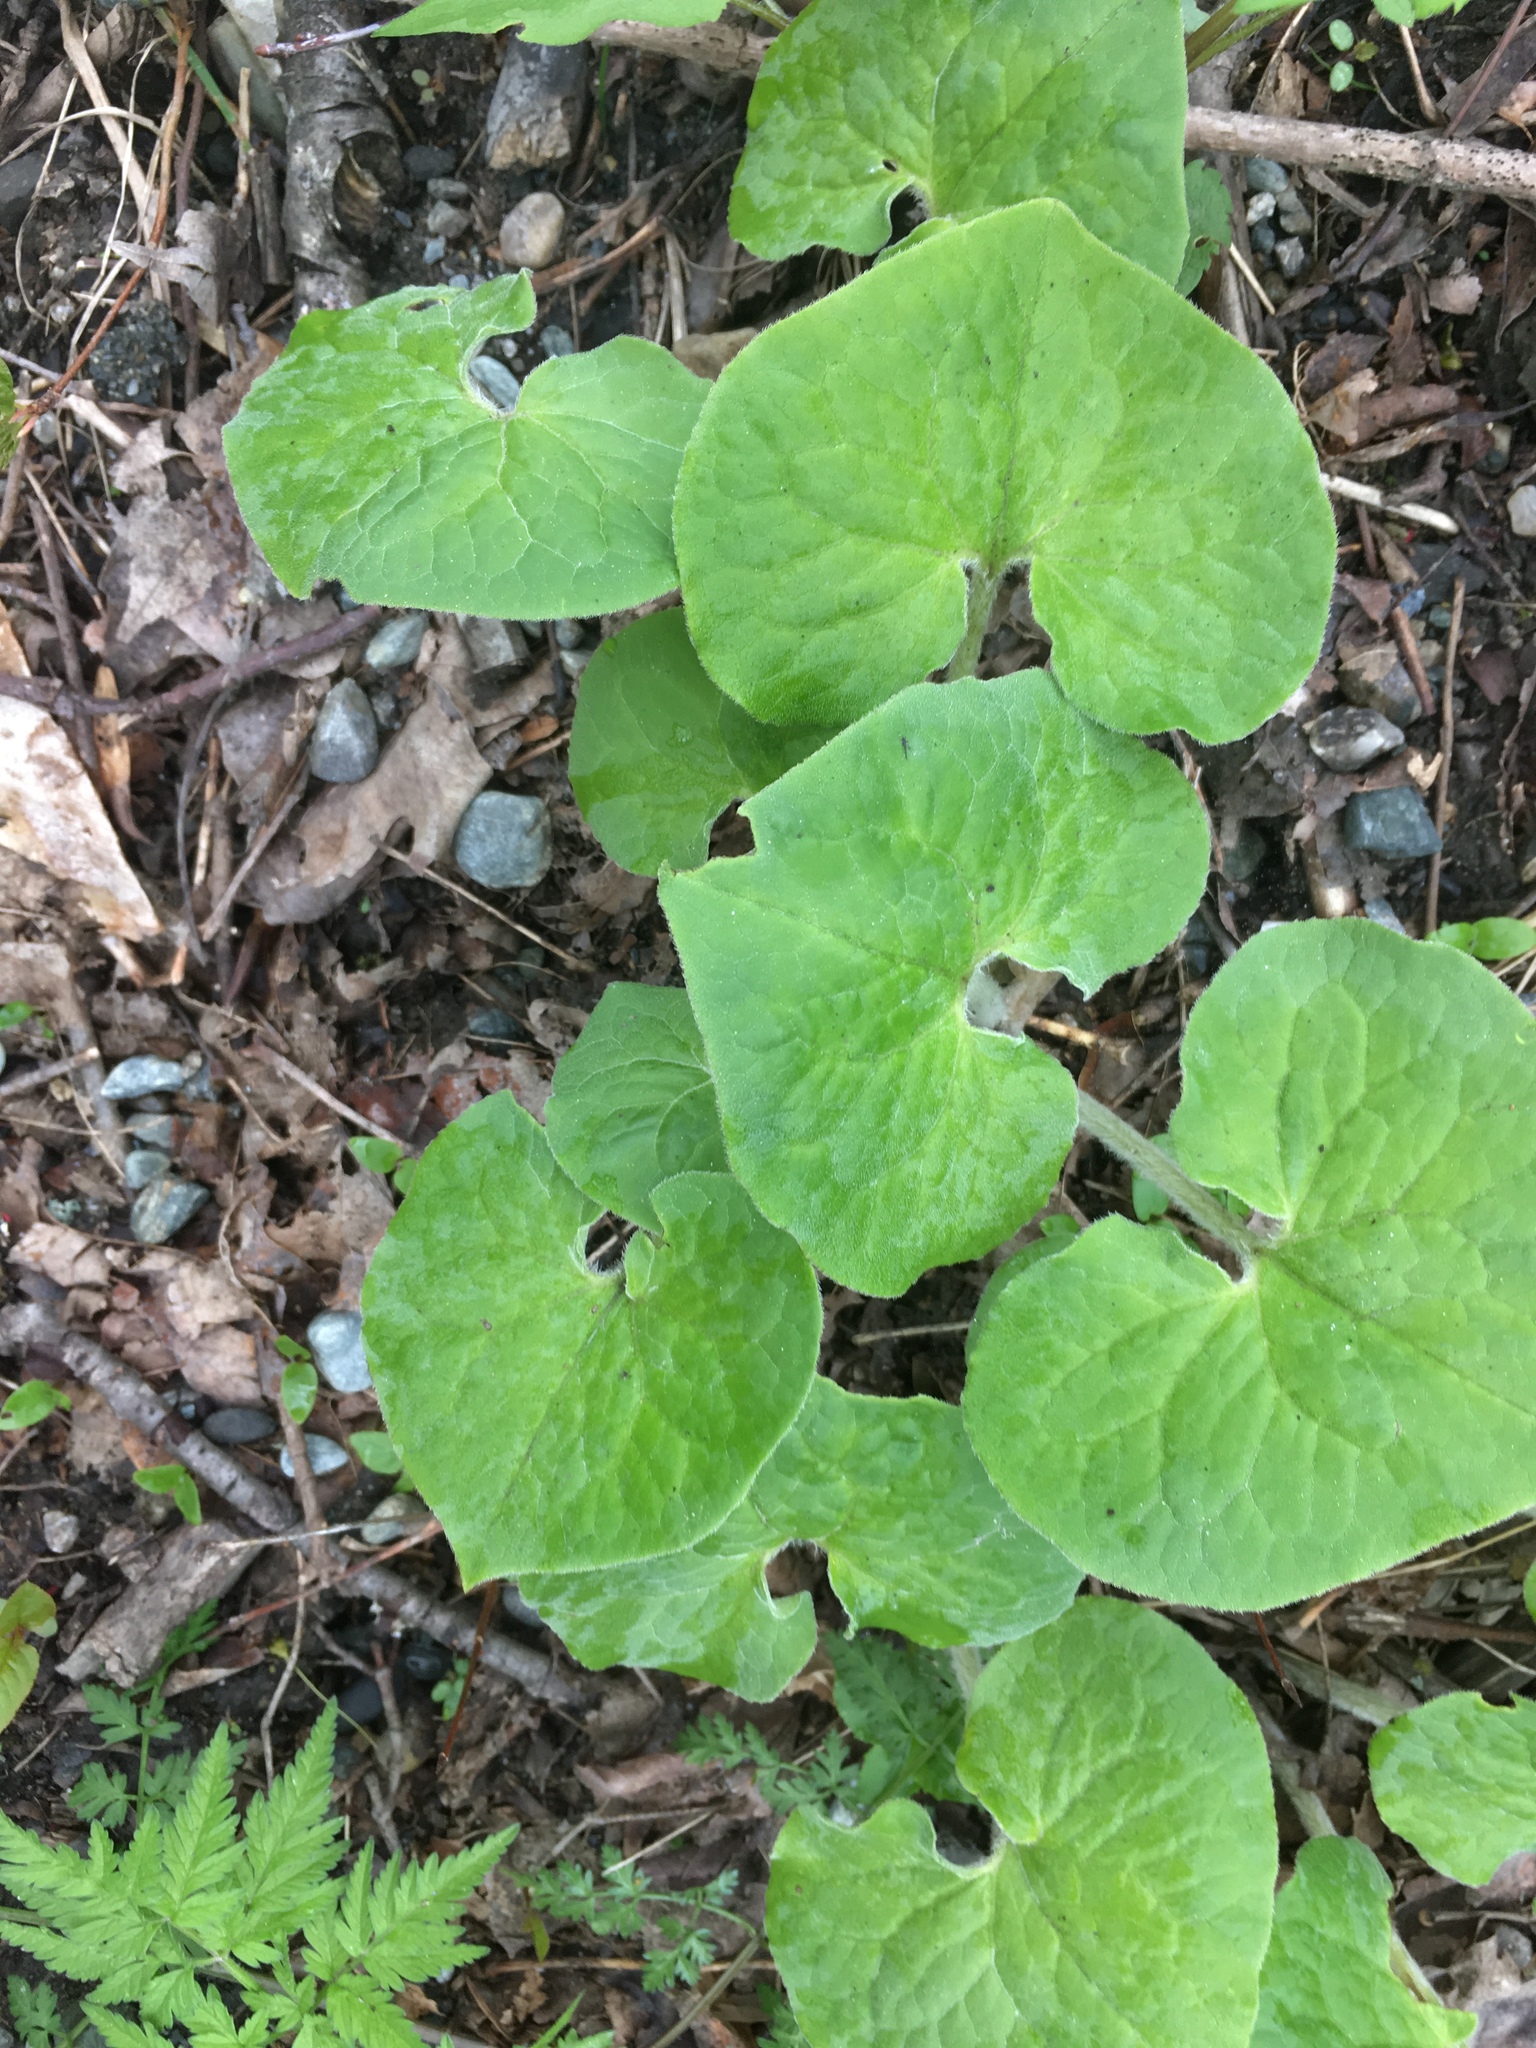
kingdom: Plantae
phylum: Tracheophyta
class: Magnoliopsida
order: Piperales
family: Aristolochiaceae
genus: Asarum
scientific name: Asarum canadense
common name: Wild ginger
